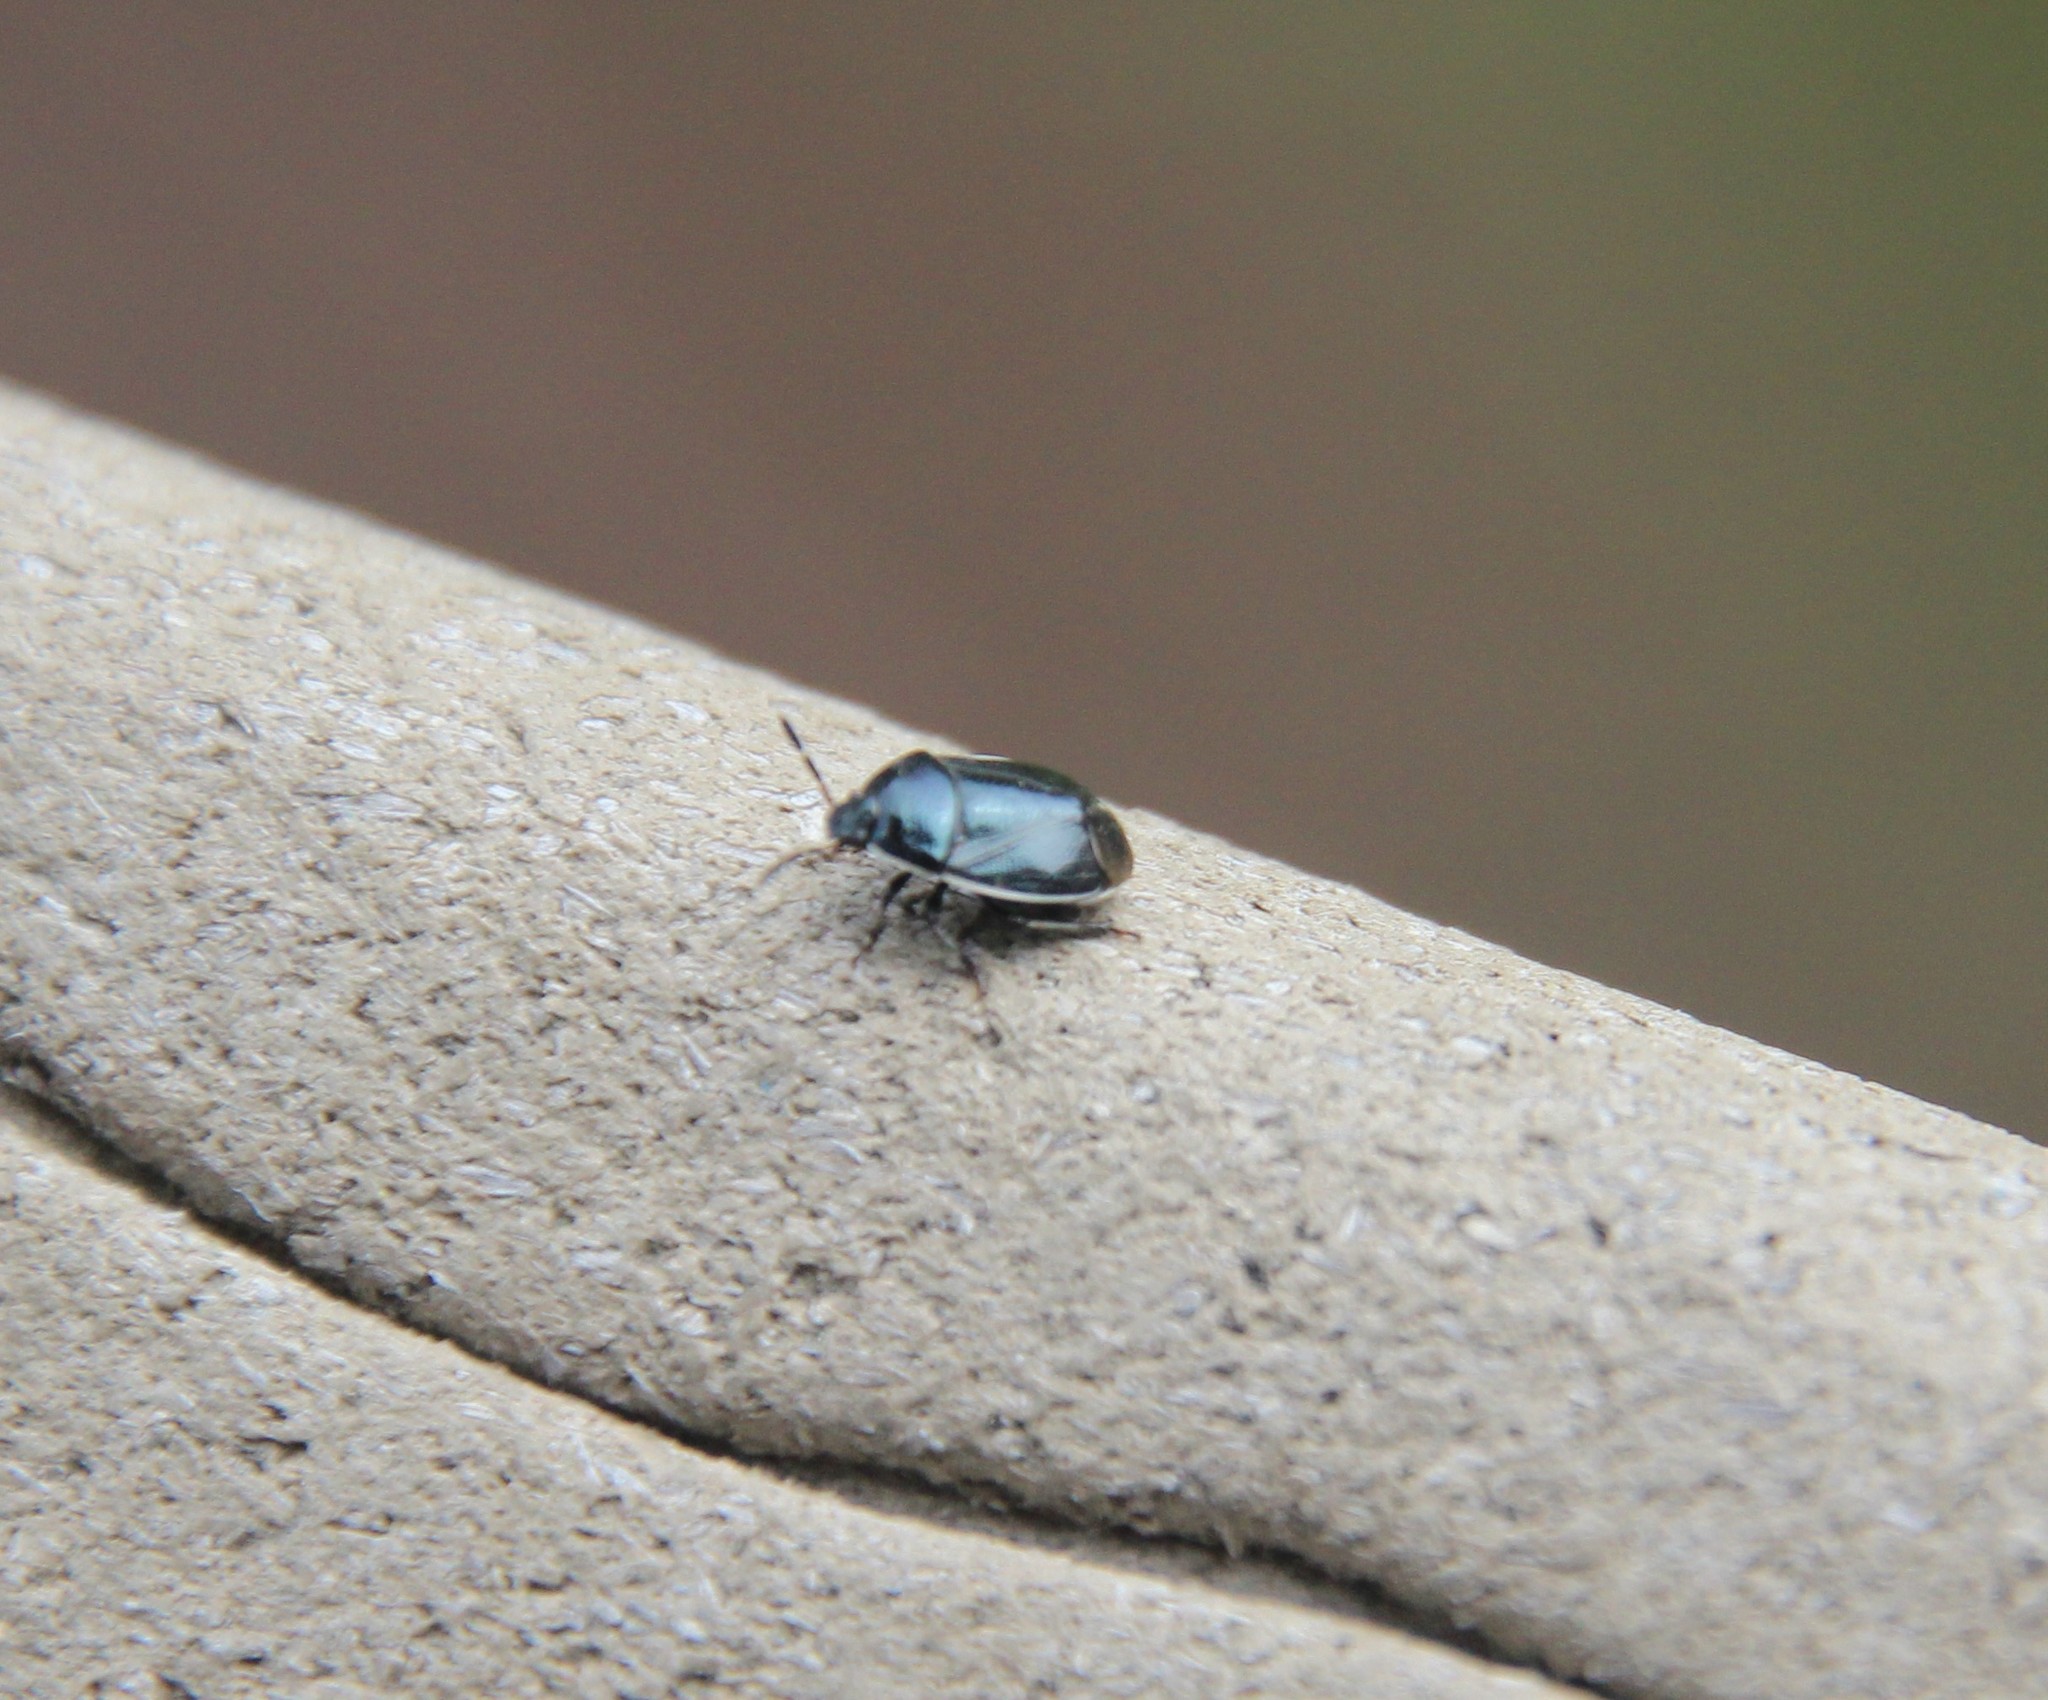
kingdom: Animalia
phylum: Arthropoda
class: Insecta
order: Hemiptera
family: Cydnidae
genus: Sehirus
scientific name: Sehirus cinctus
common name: White-margined burrower bug
